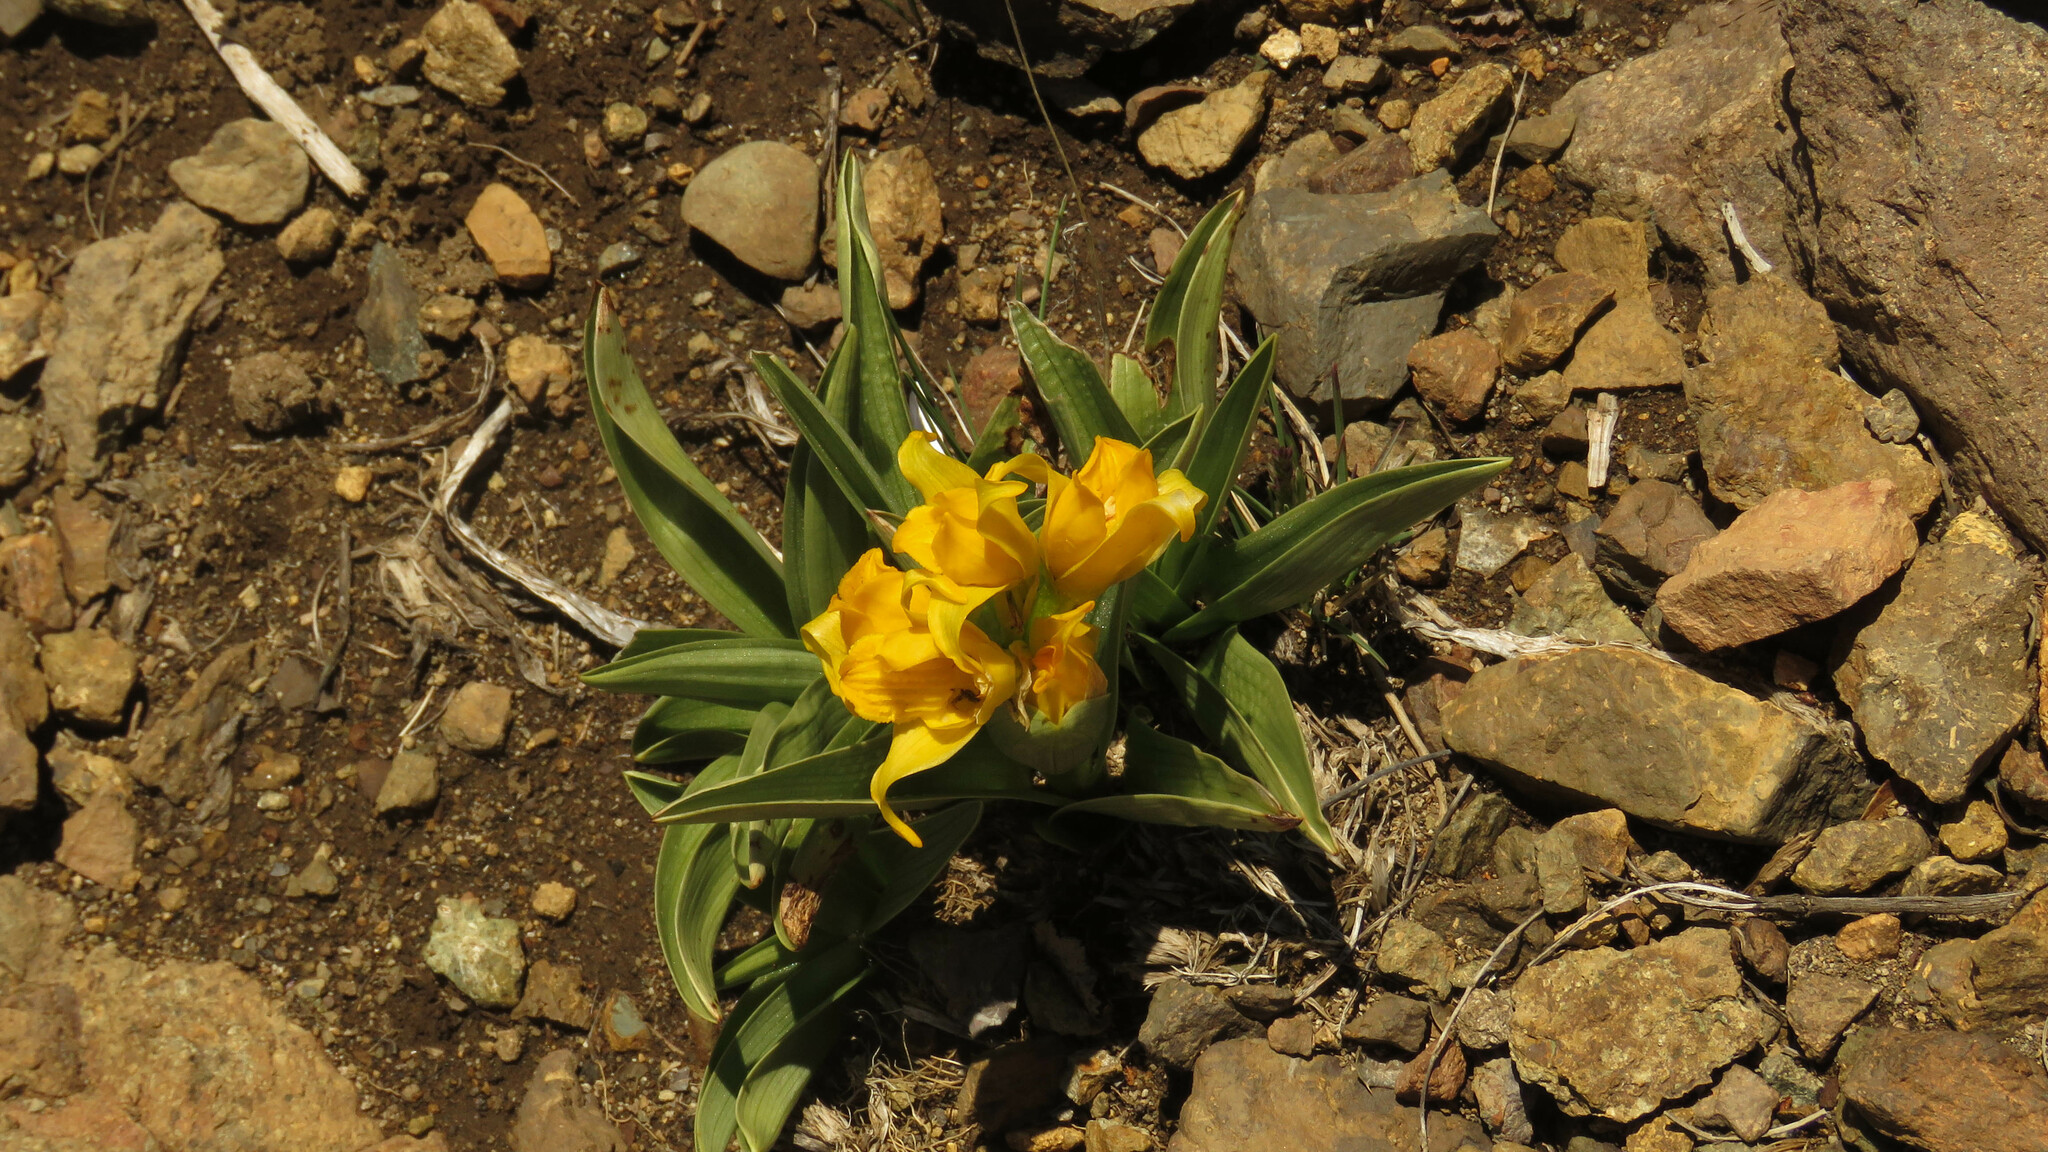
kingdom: Plantae
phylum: Tracheophyta
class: Liliopsida
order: Asparagales
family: Orchidaceae
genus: Chloraea
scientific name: Chloraea alpina
